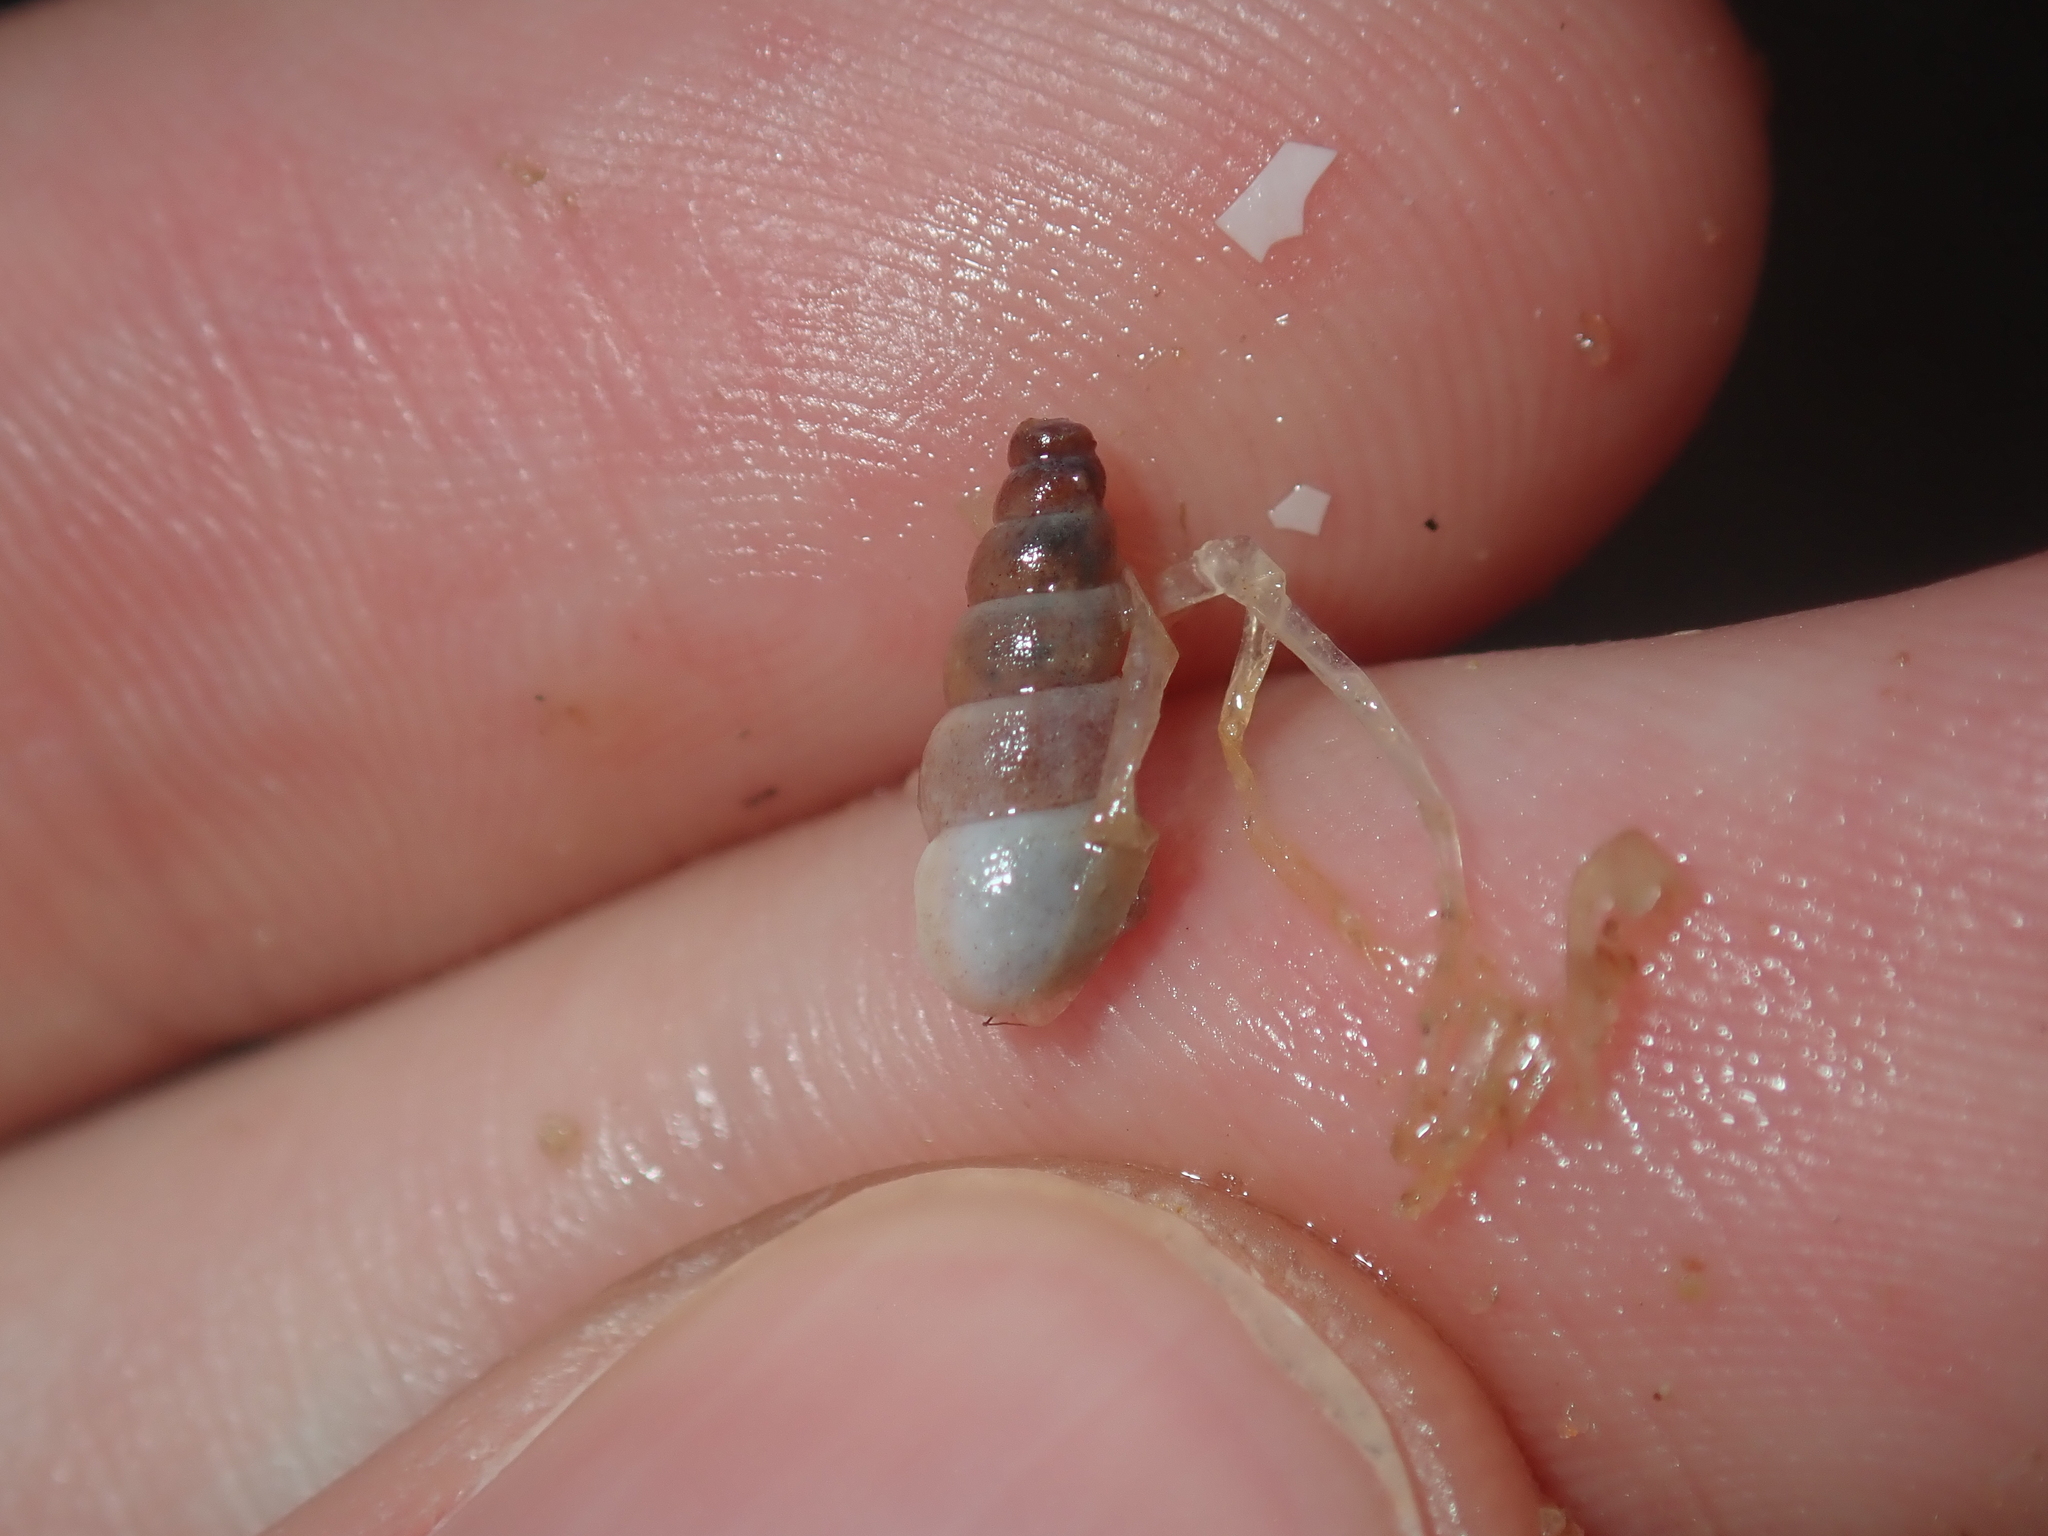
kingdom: Animalia
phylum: Mollusca
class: Gastropoda
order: Littorinimorpha
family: Tomichiidae
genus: Coxiella
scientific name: Coxiella striatula
